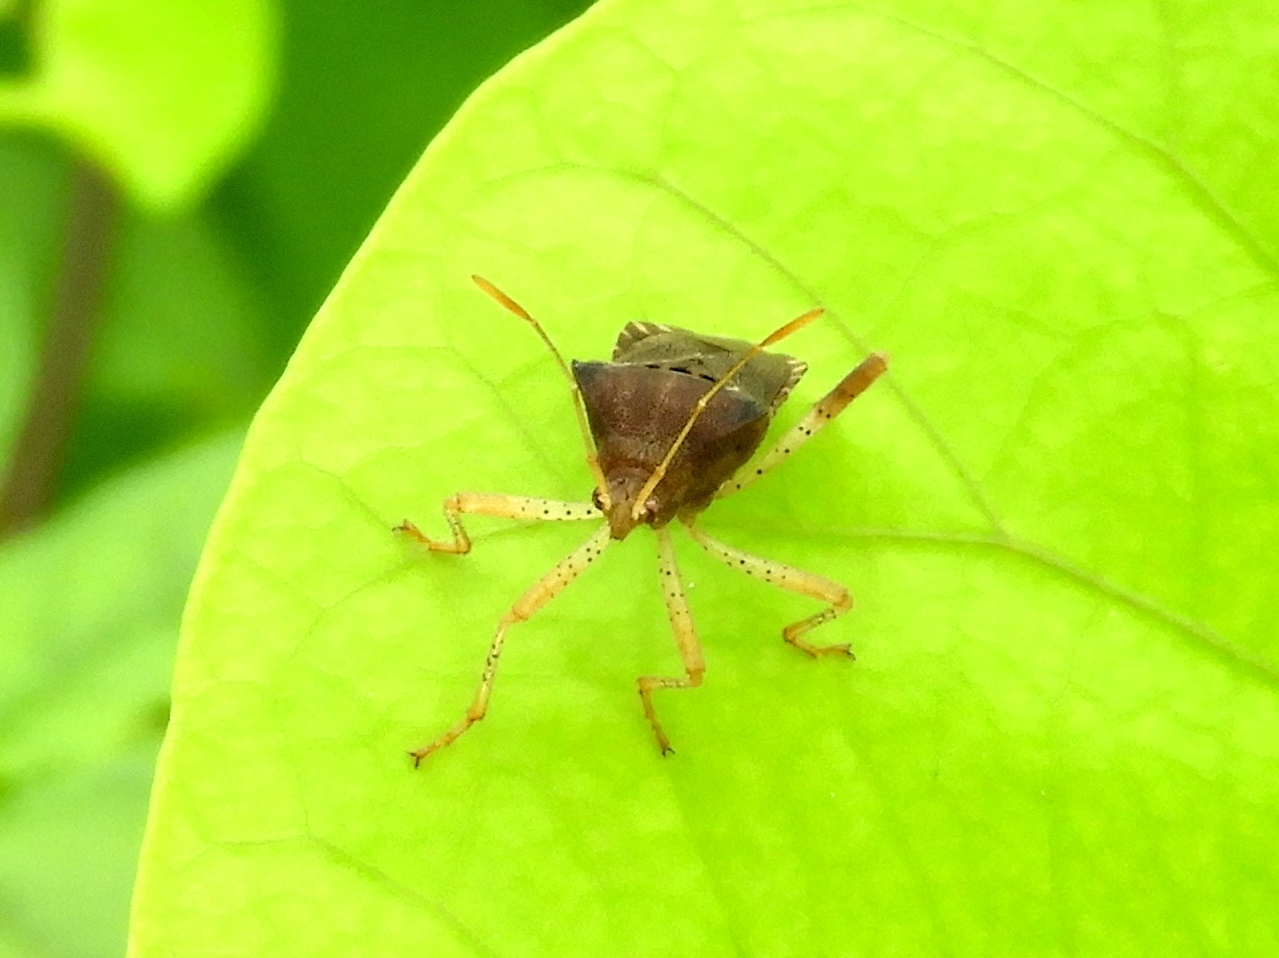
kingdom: Animalia
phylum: Arthropoda
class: Insecta
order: Hemiptera
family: Coreidae
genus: Anasa
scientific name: Anasa
